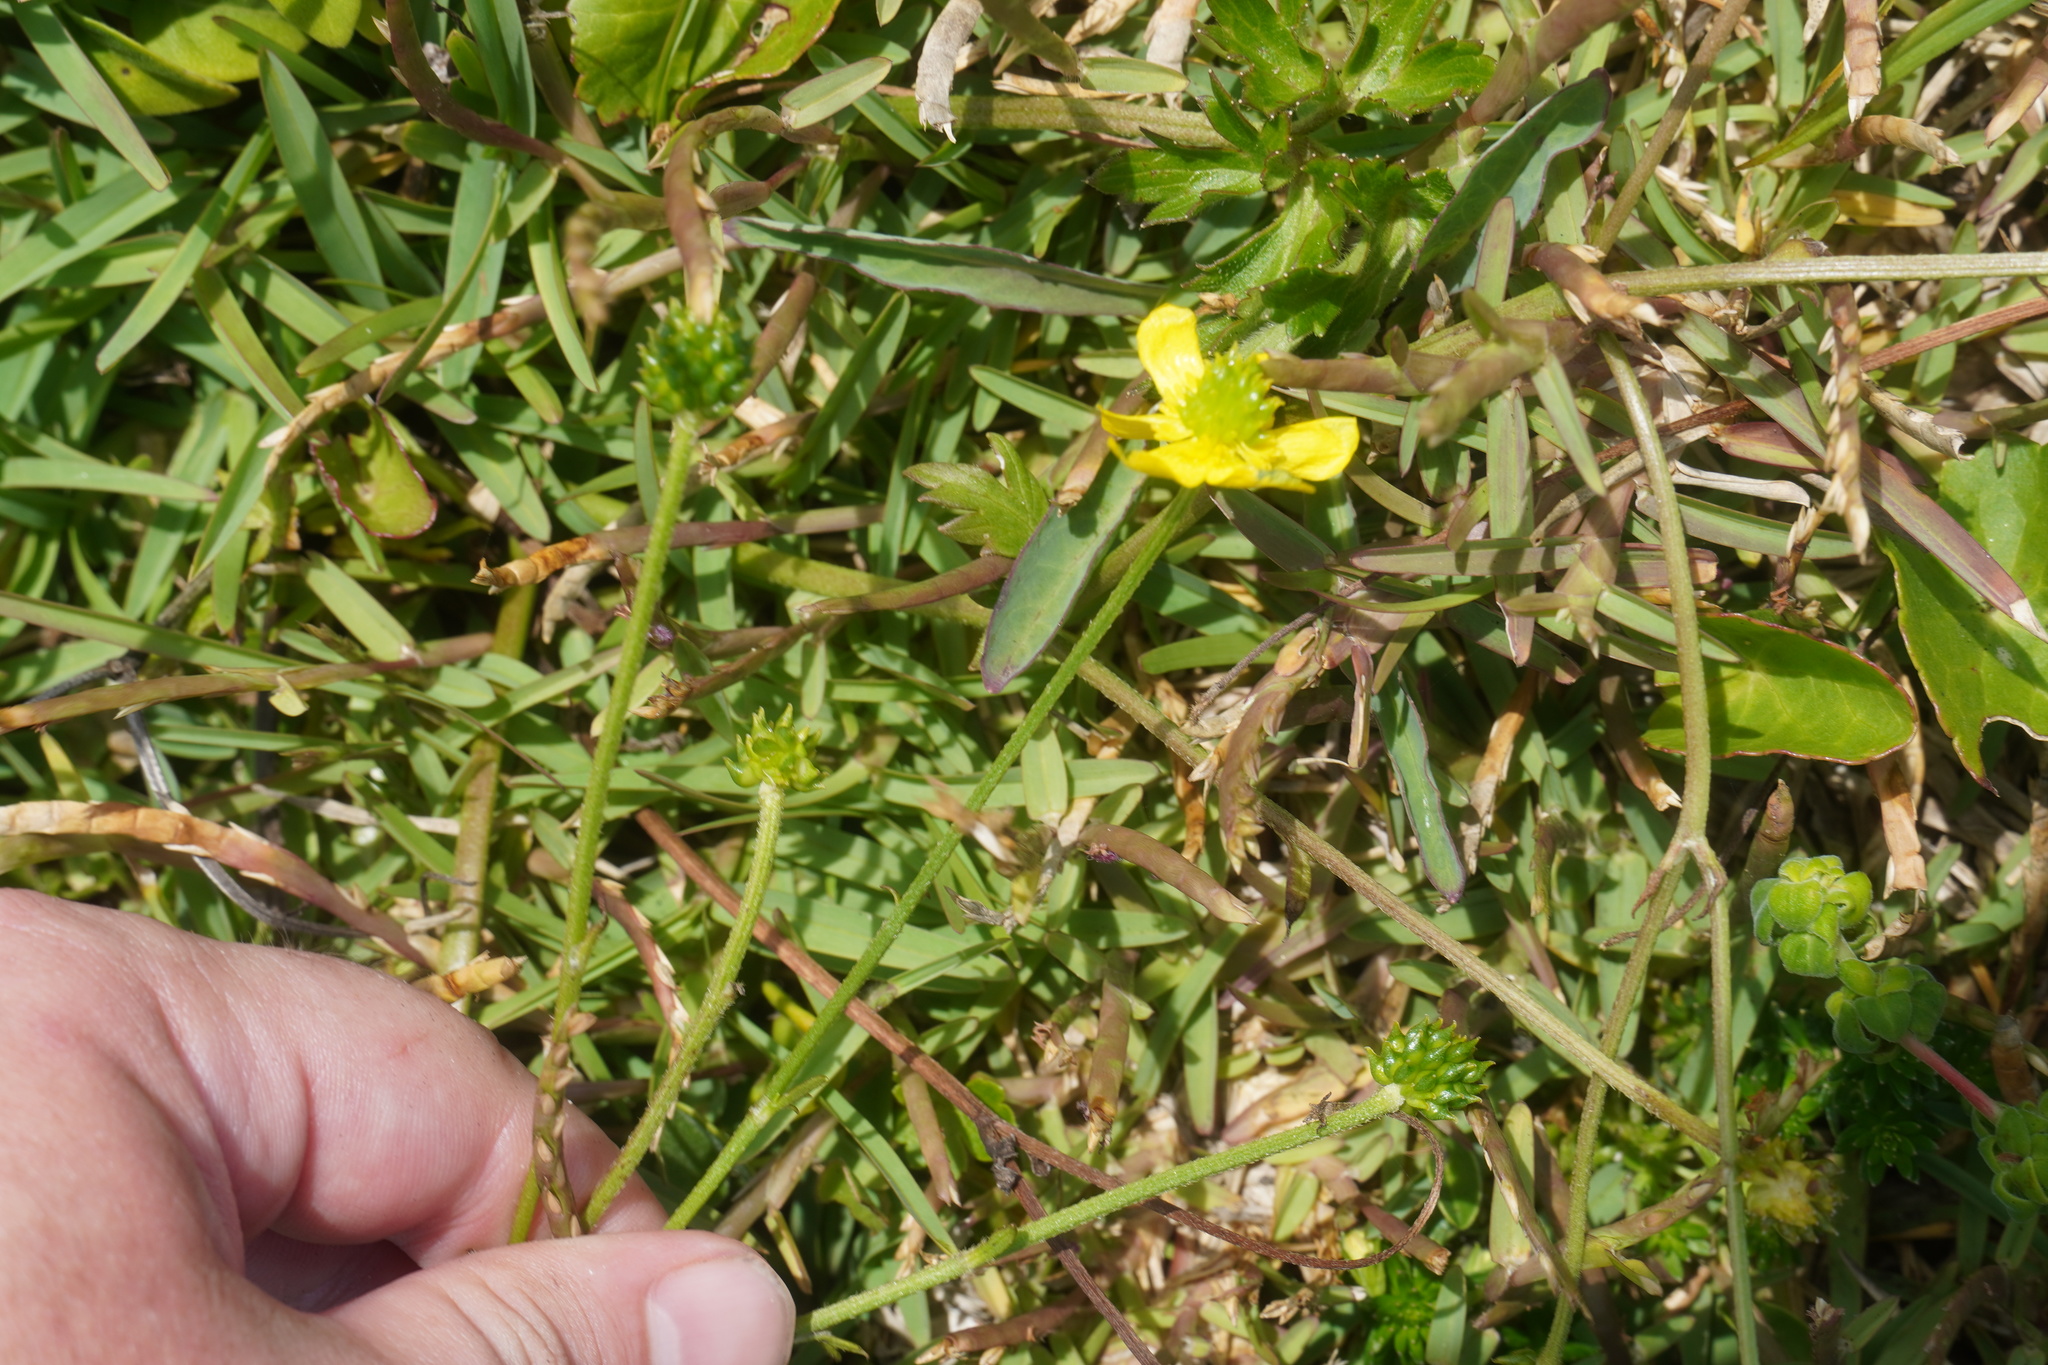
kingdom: Plantae
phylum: Tracheophyta
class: Magnoliopsida
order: Ranunculales
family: Ranunculaceae
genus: Ranunculus
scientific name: Ranunculus multifidus
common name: Wild buttercup
